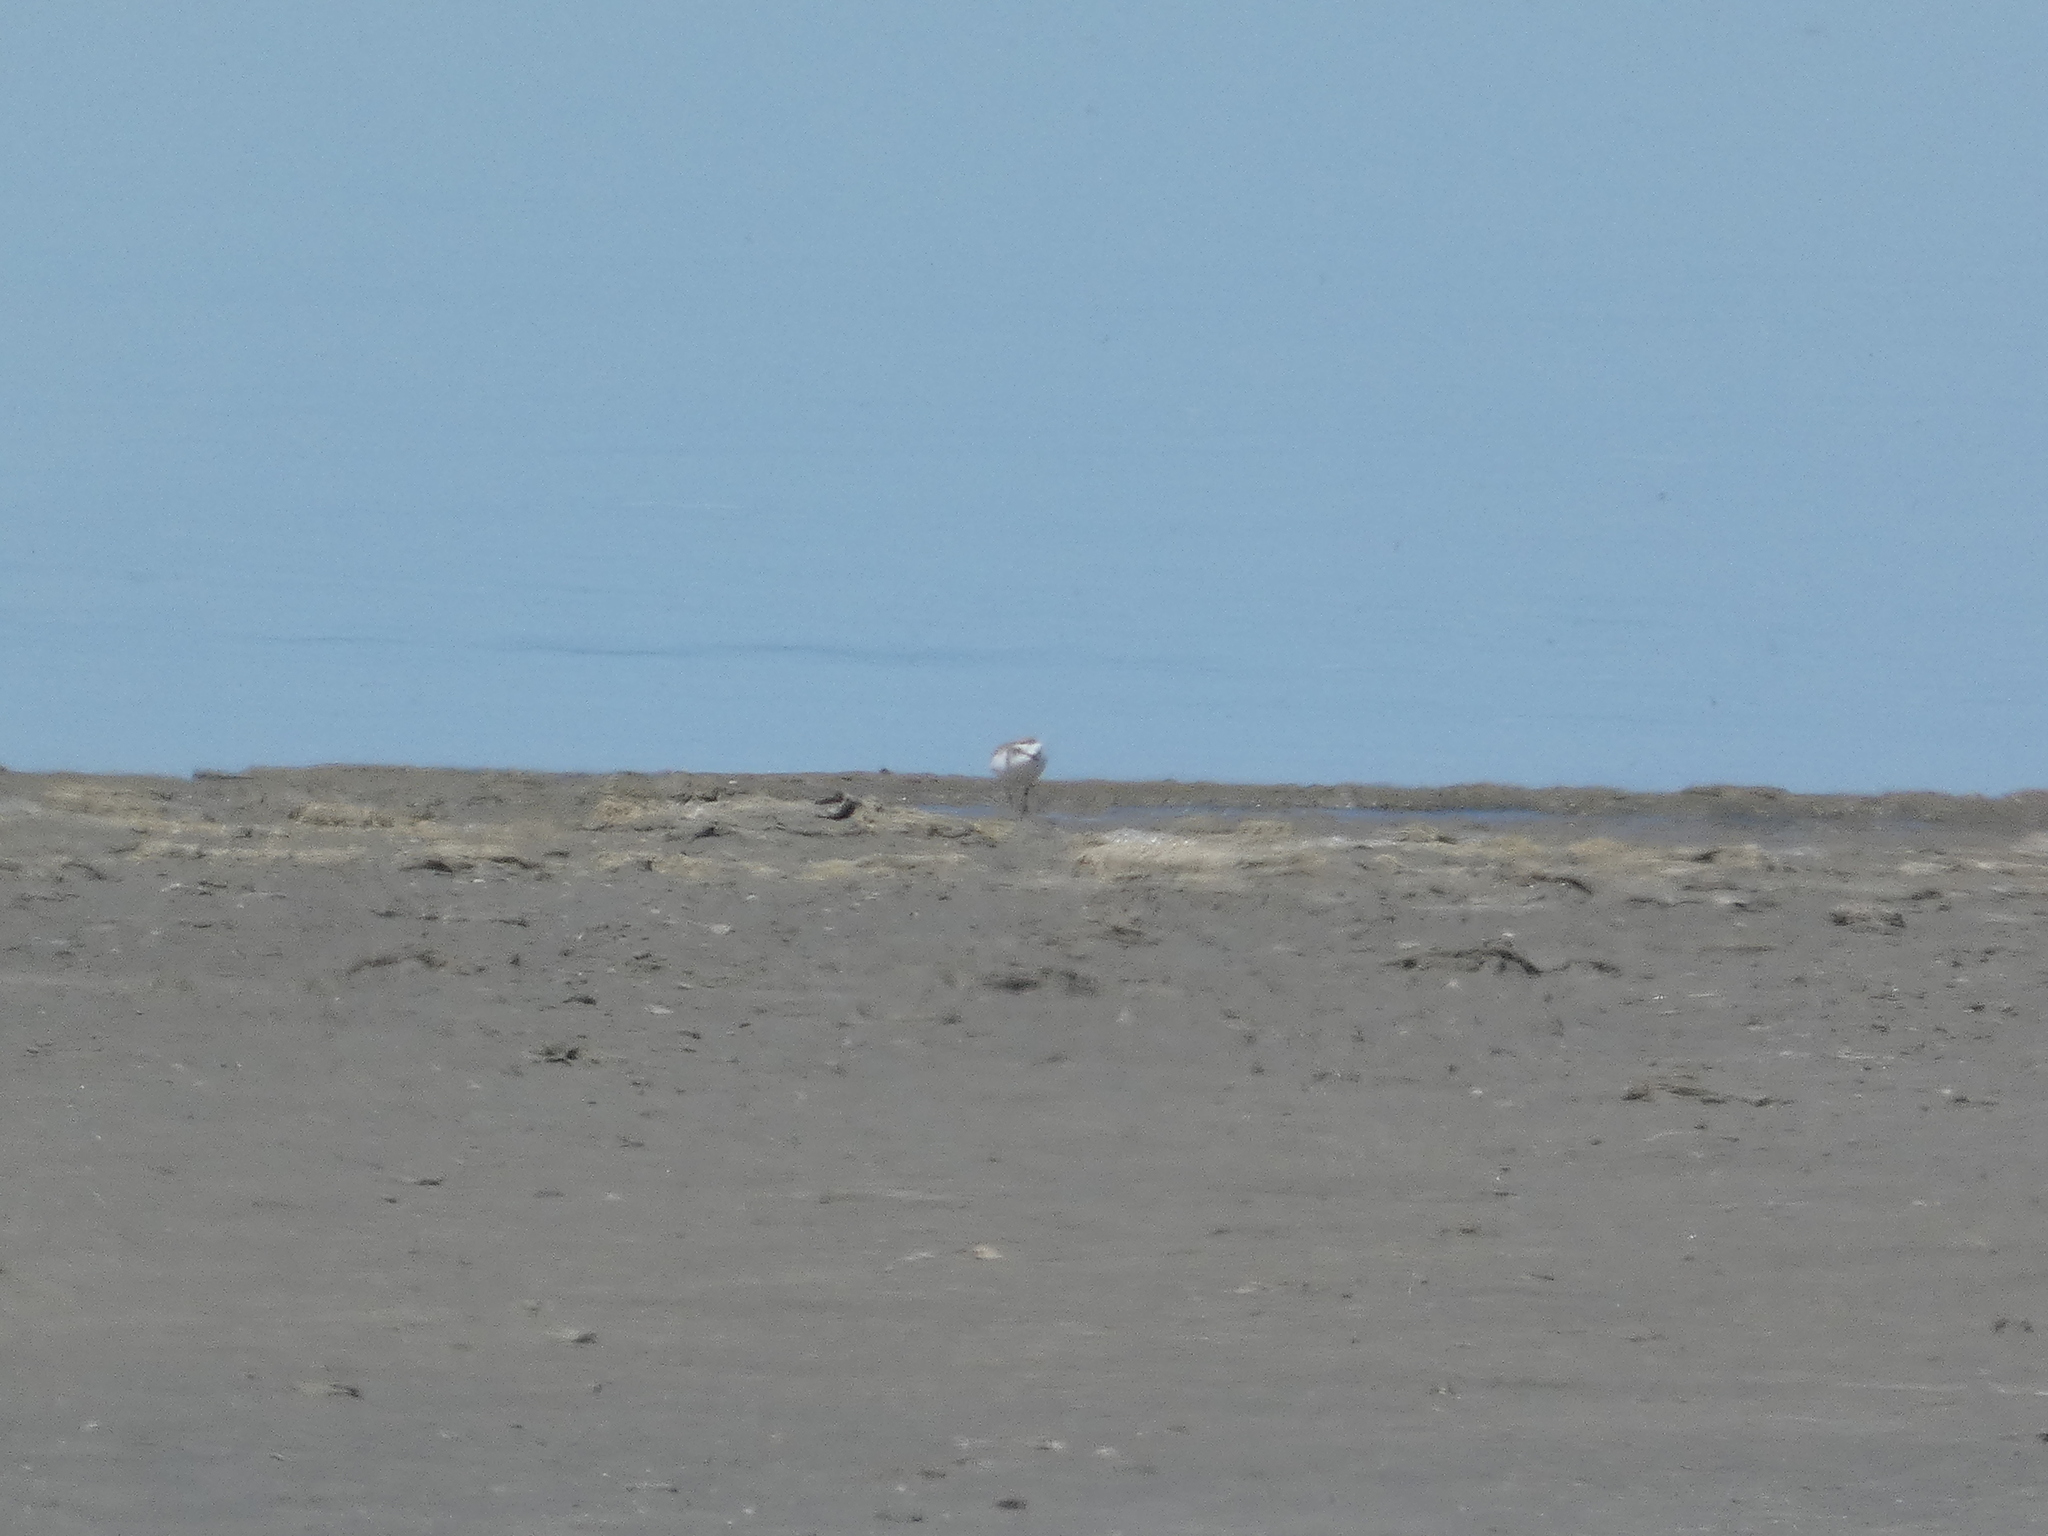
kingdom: Animalia
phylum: Chordata
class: Aves
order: Charadriiformes
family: Charadriidae
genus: Charadrius
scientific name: Charadrius alexandrinus
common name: Kentish plover
